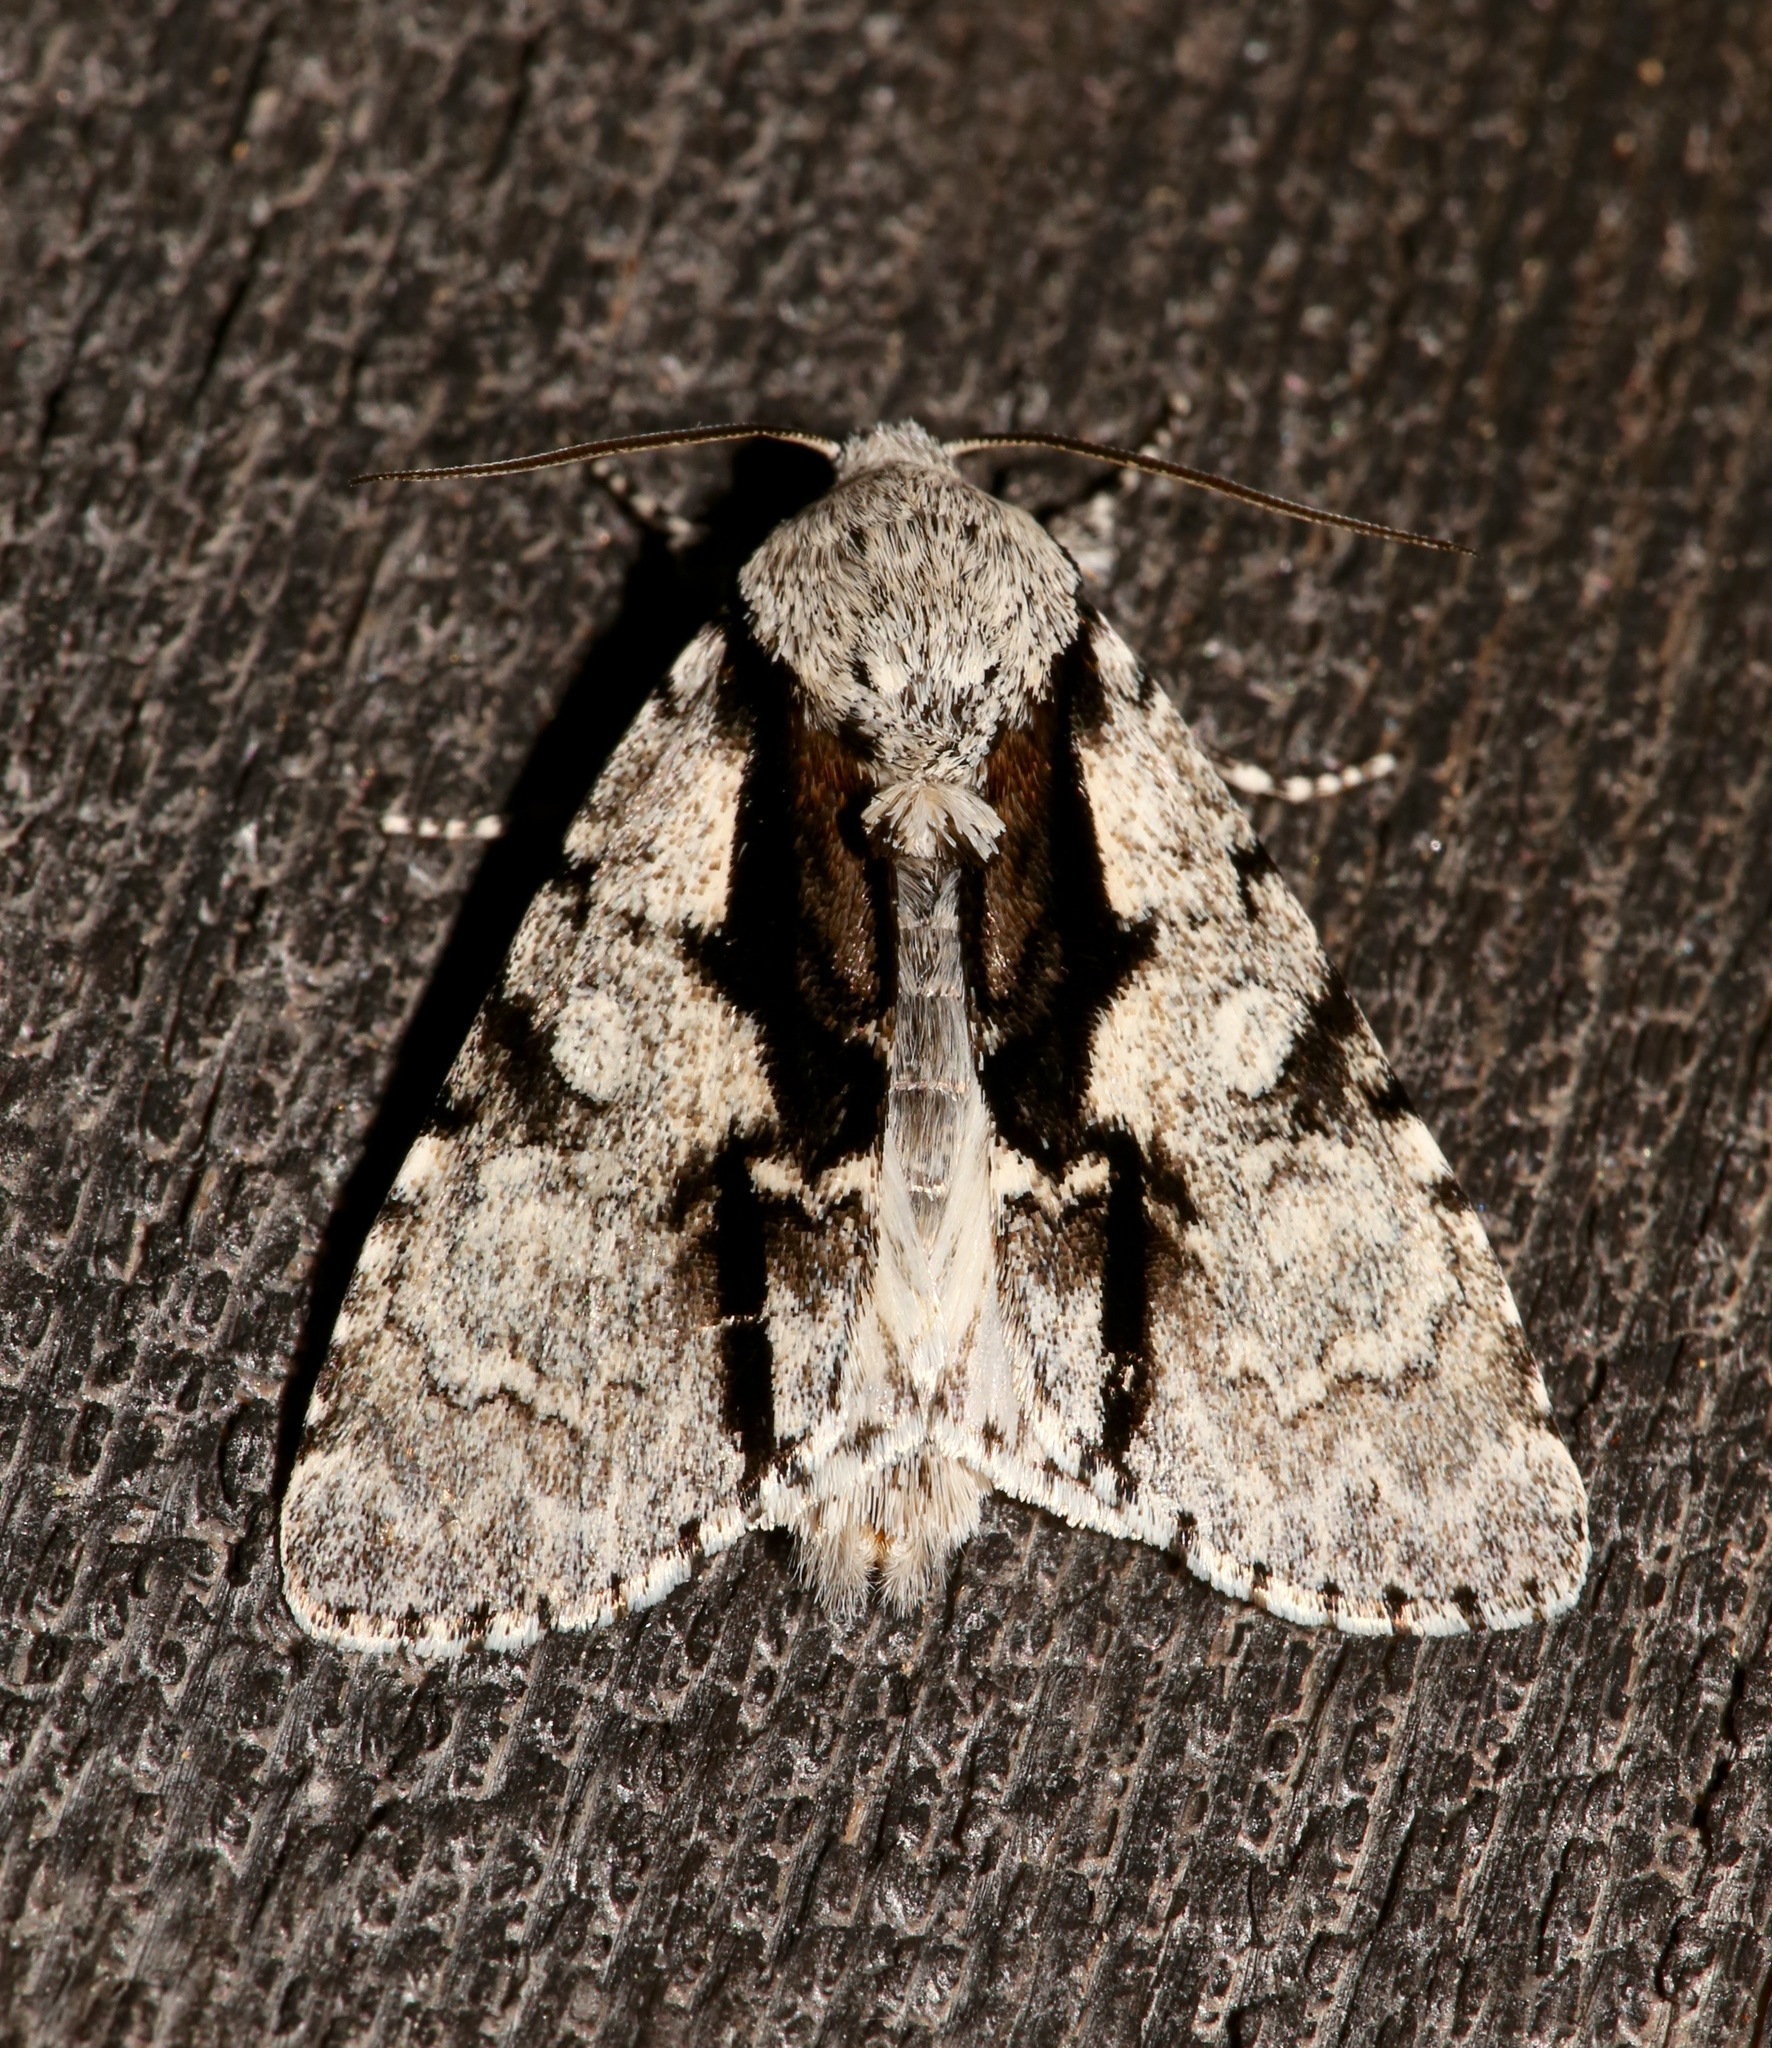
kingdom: Animalia
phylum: Arthropoda
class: Insecta
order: Lepidoptera
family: Noctuidae
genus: Acronicta
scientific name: Acronicta funeralis
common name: Funerary dagger
